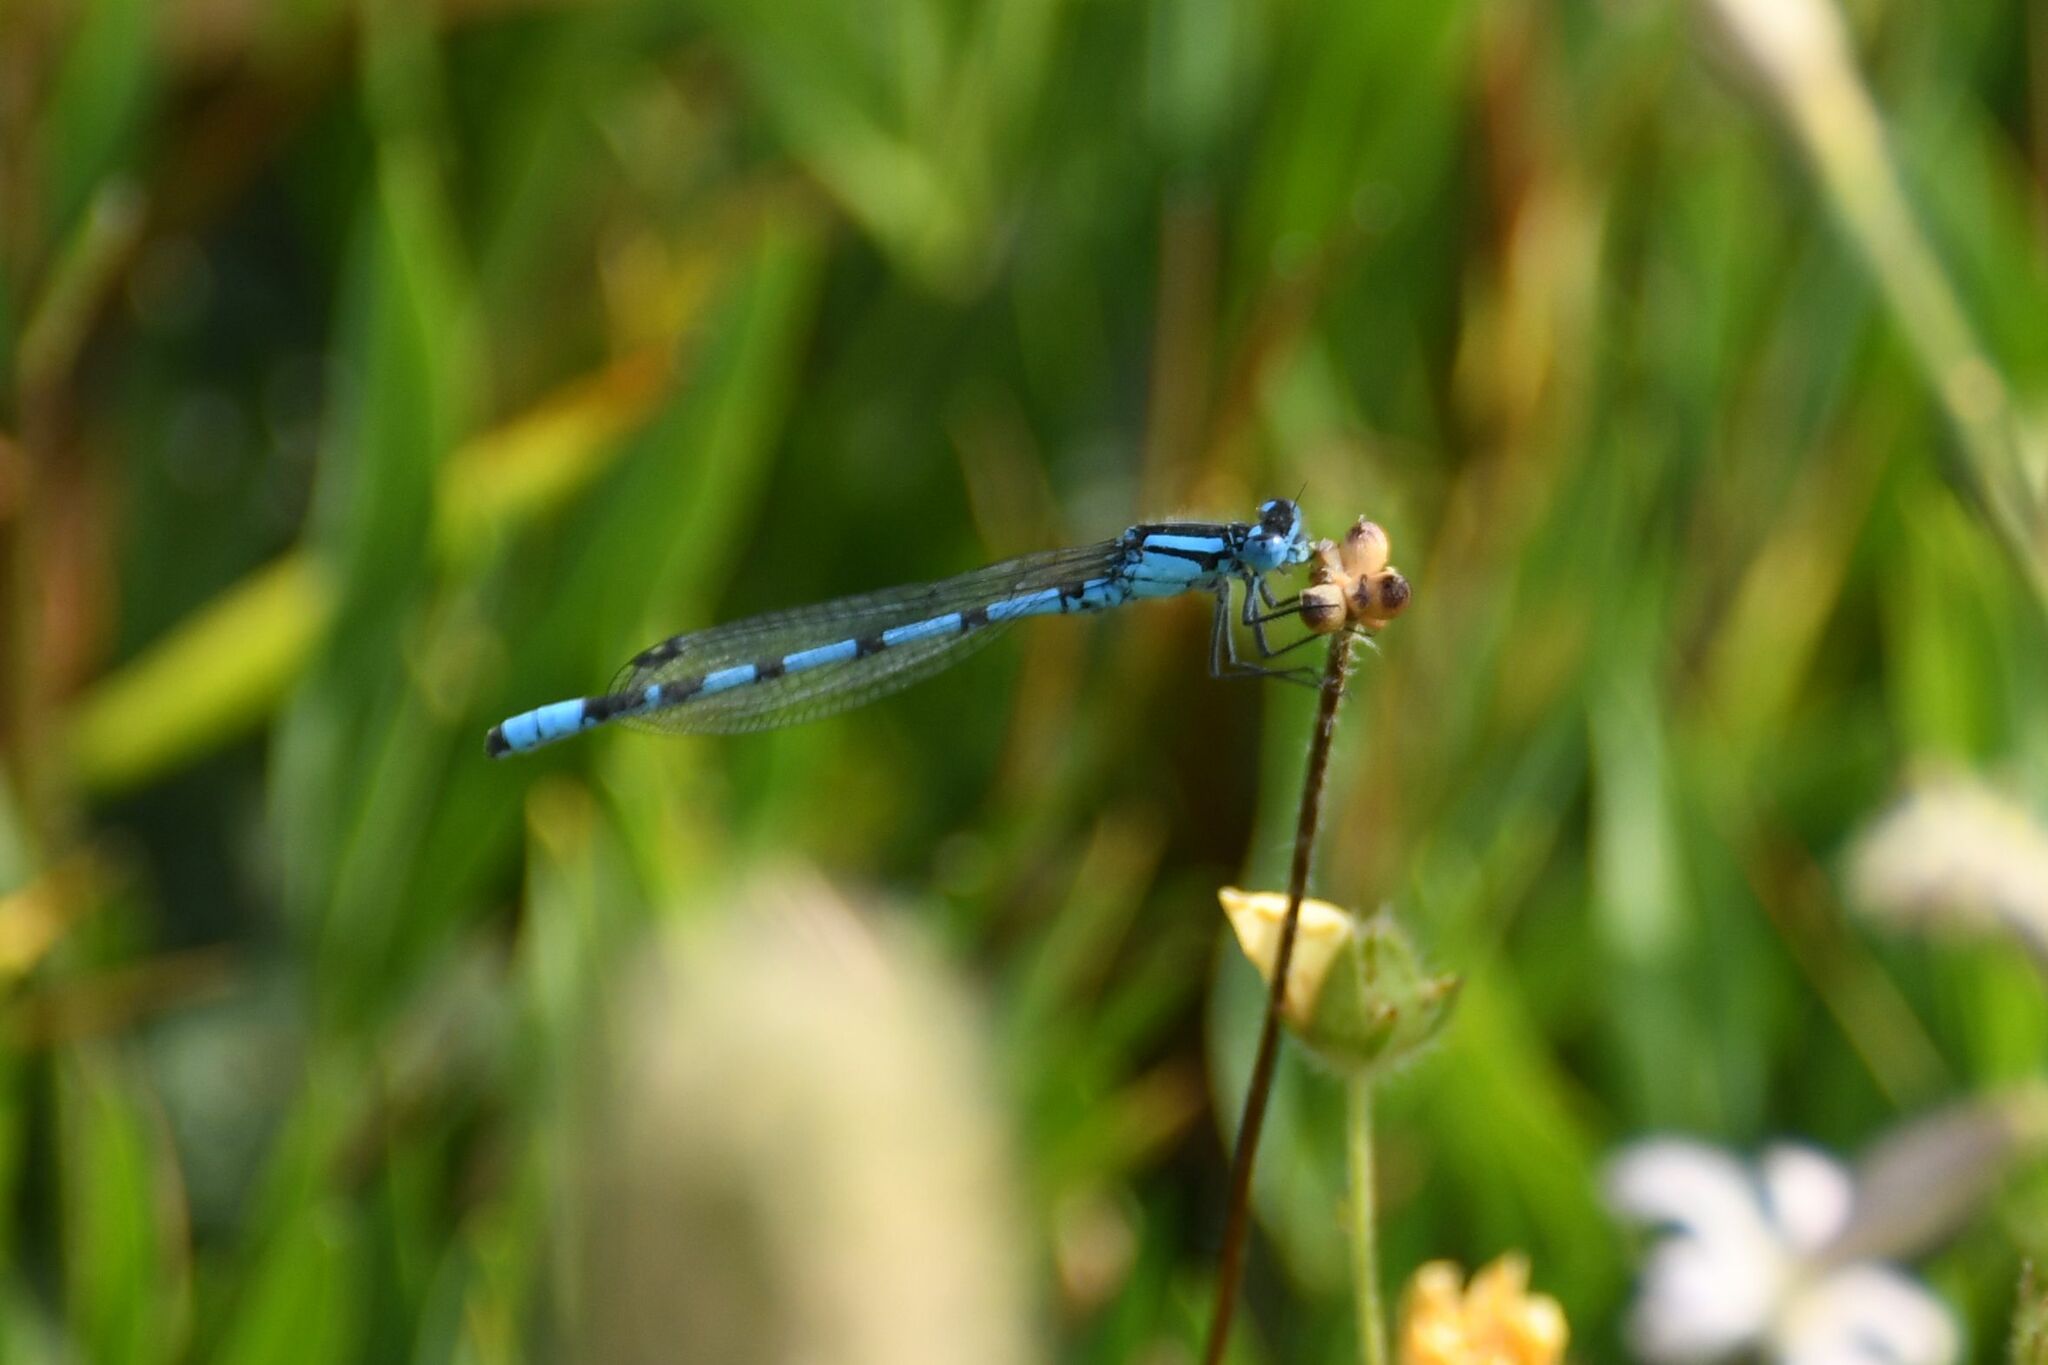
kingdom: Animalia
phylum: Arthropoda
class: Insecta
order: Odonata
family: Coenagrionidae
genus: Enallagma
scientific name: Enallagma cyathigerum
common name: Common blue damselfly
